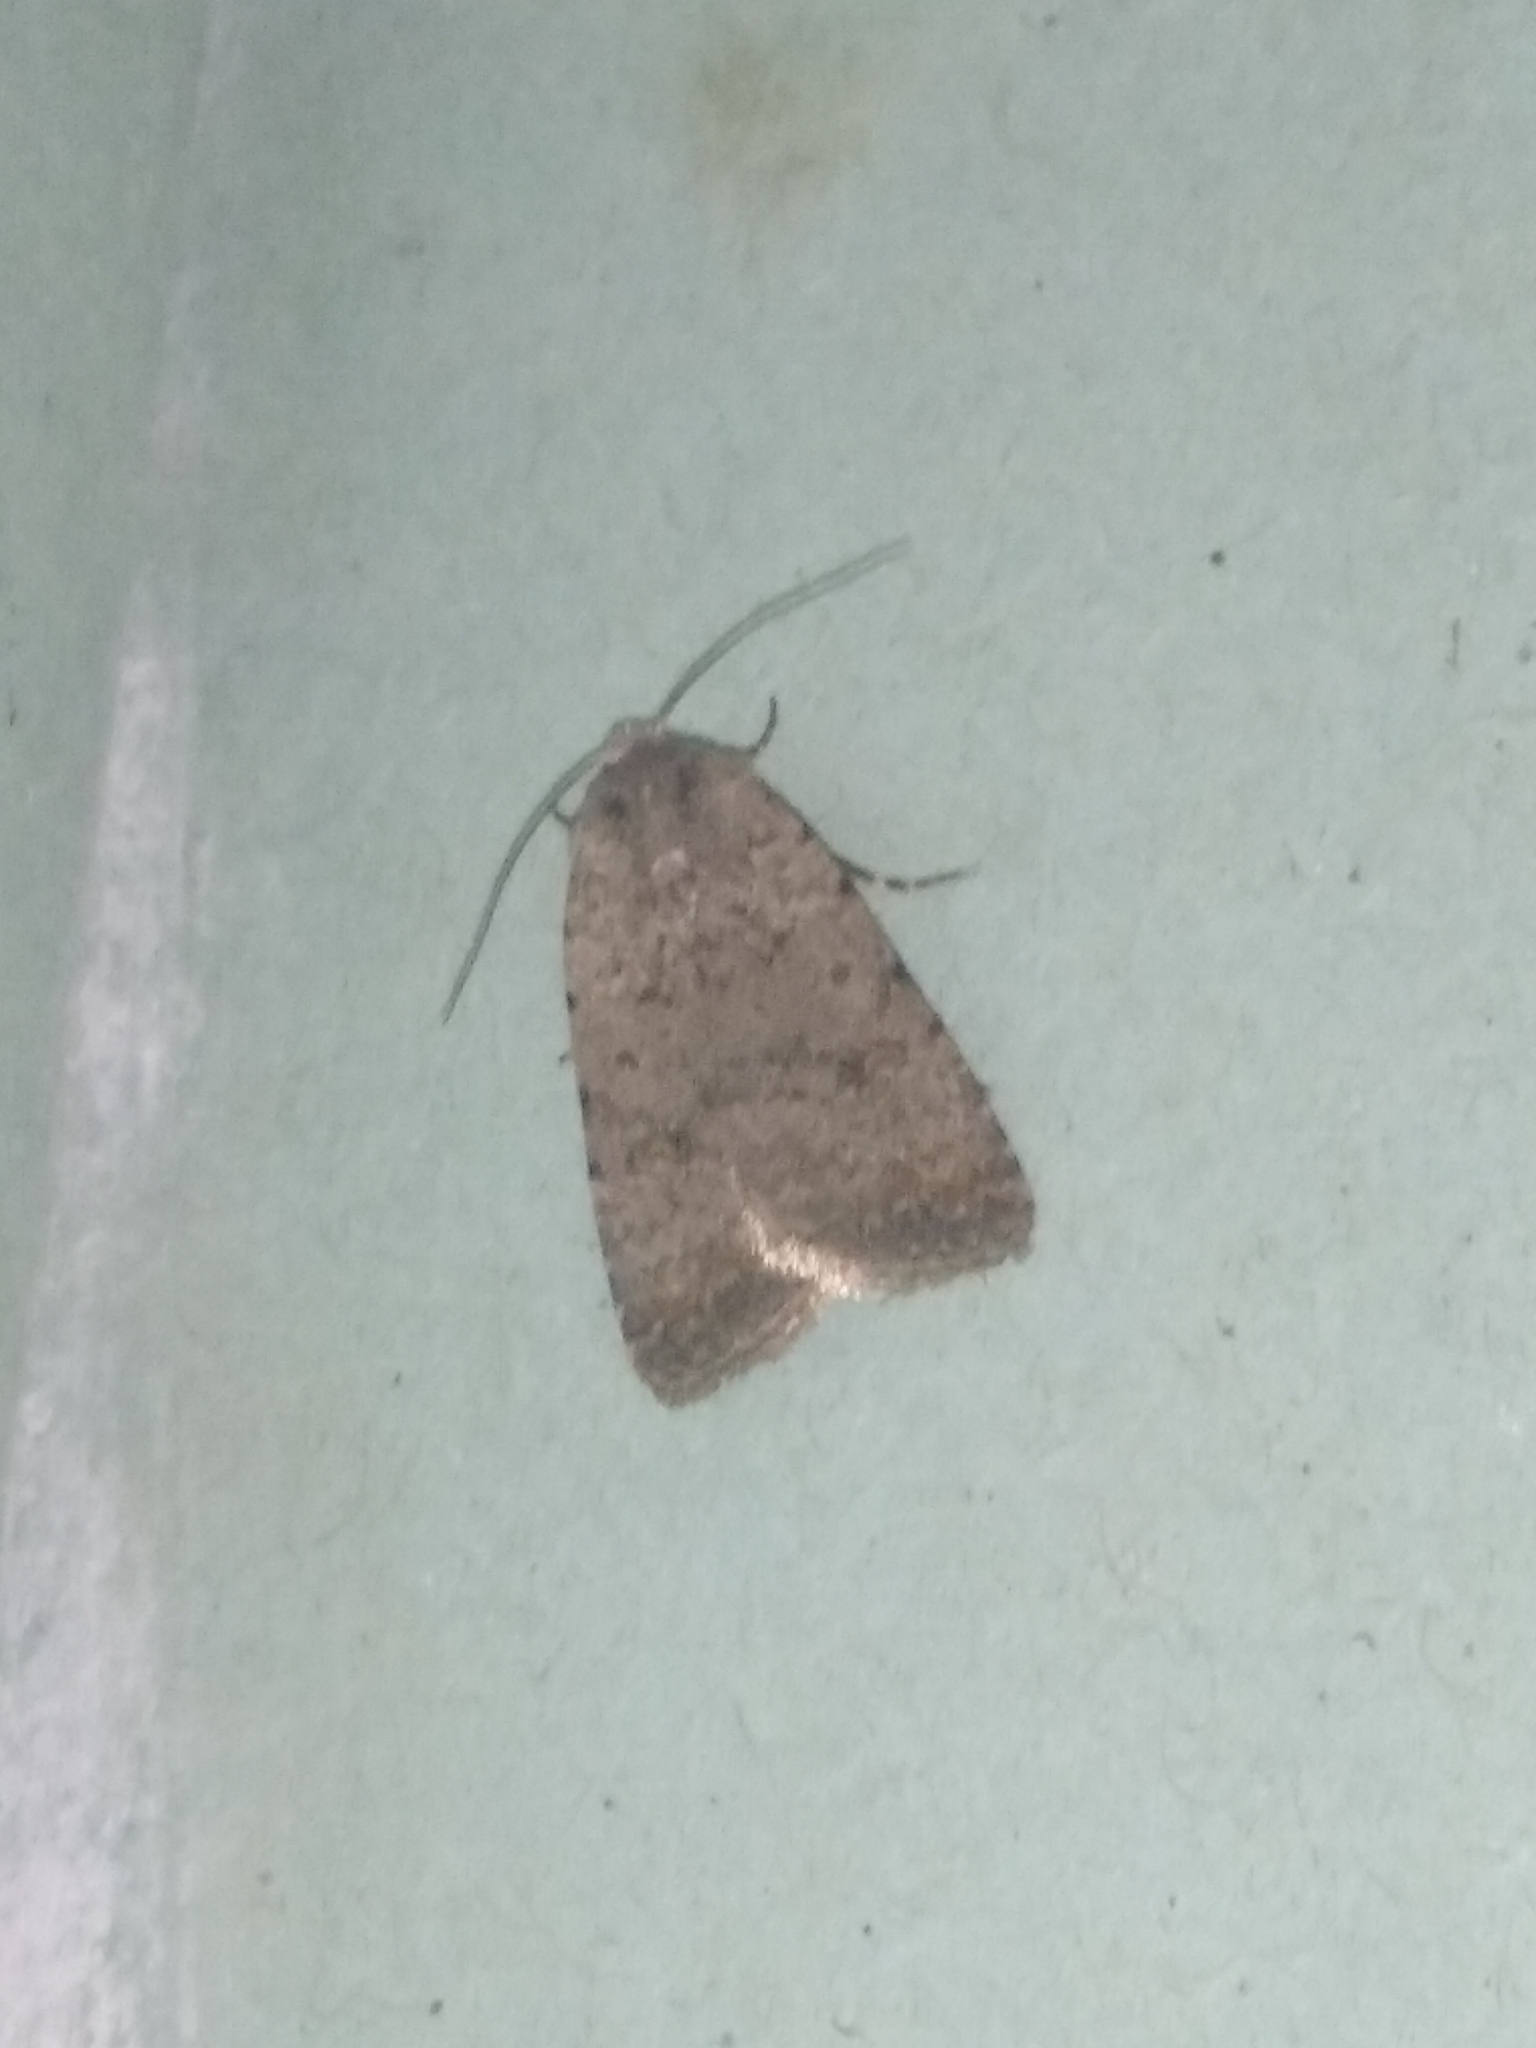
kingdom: Animalia
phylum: Arthropoda
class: Insecta
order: Lepidoptera
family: Noctuidae
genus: Caradrina
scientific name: Caradrina clavipalpis
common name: Pale mottled willow
